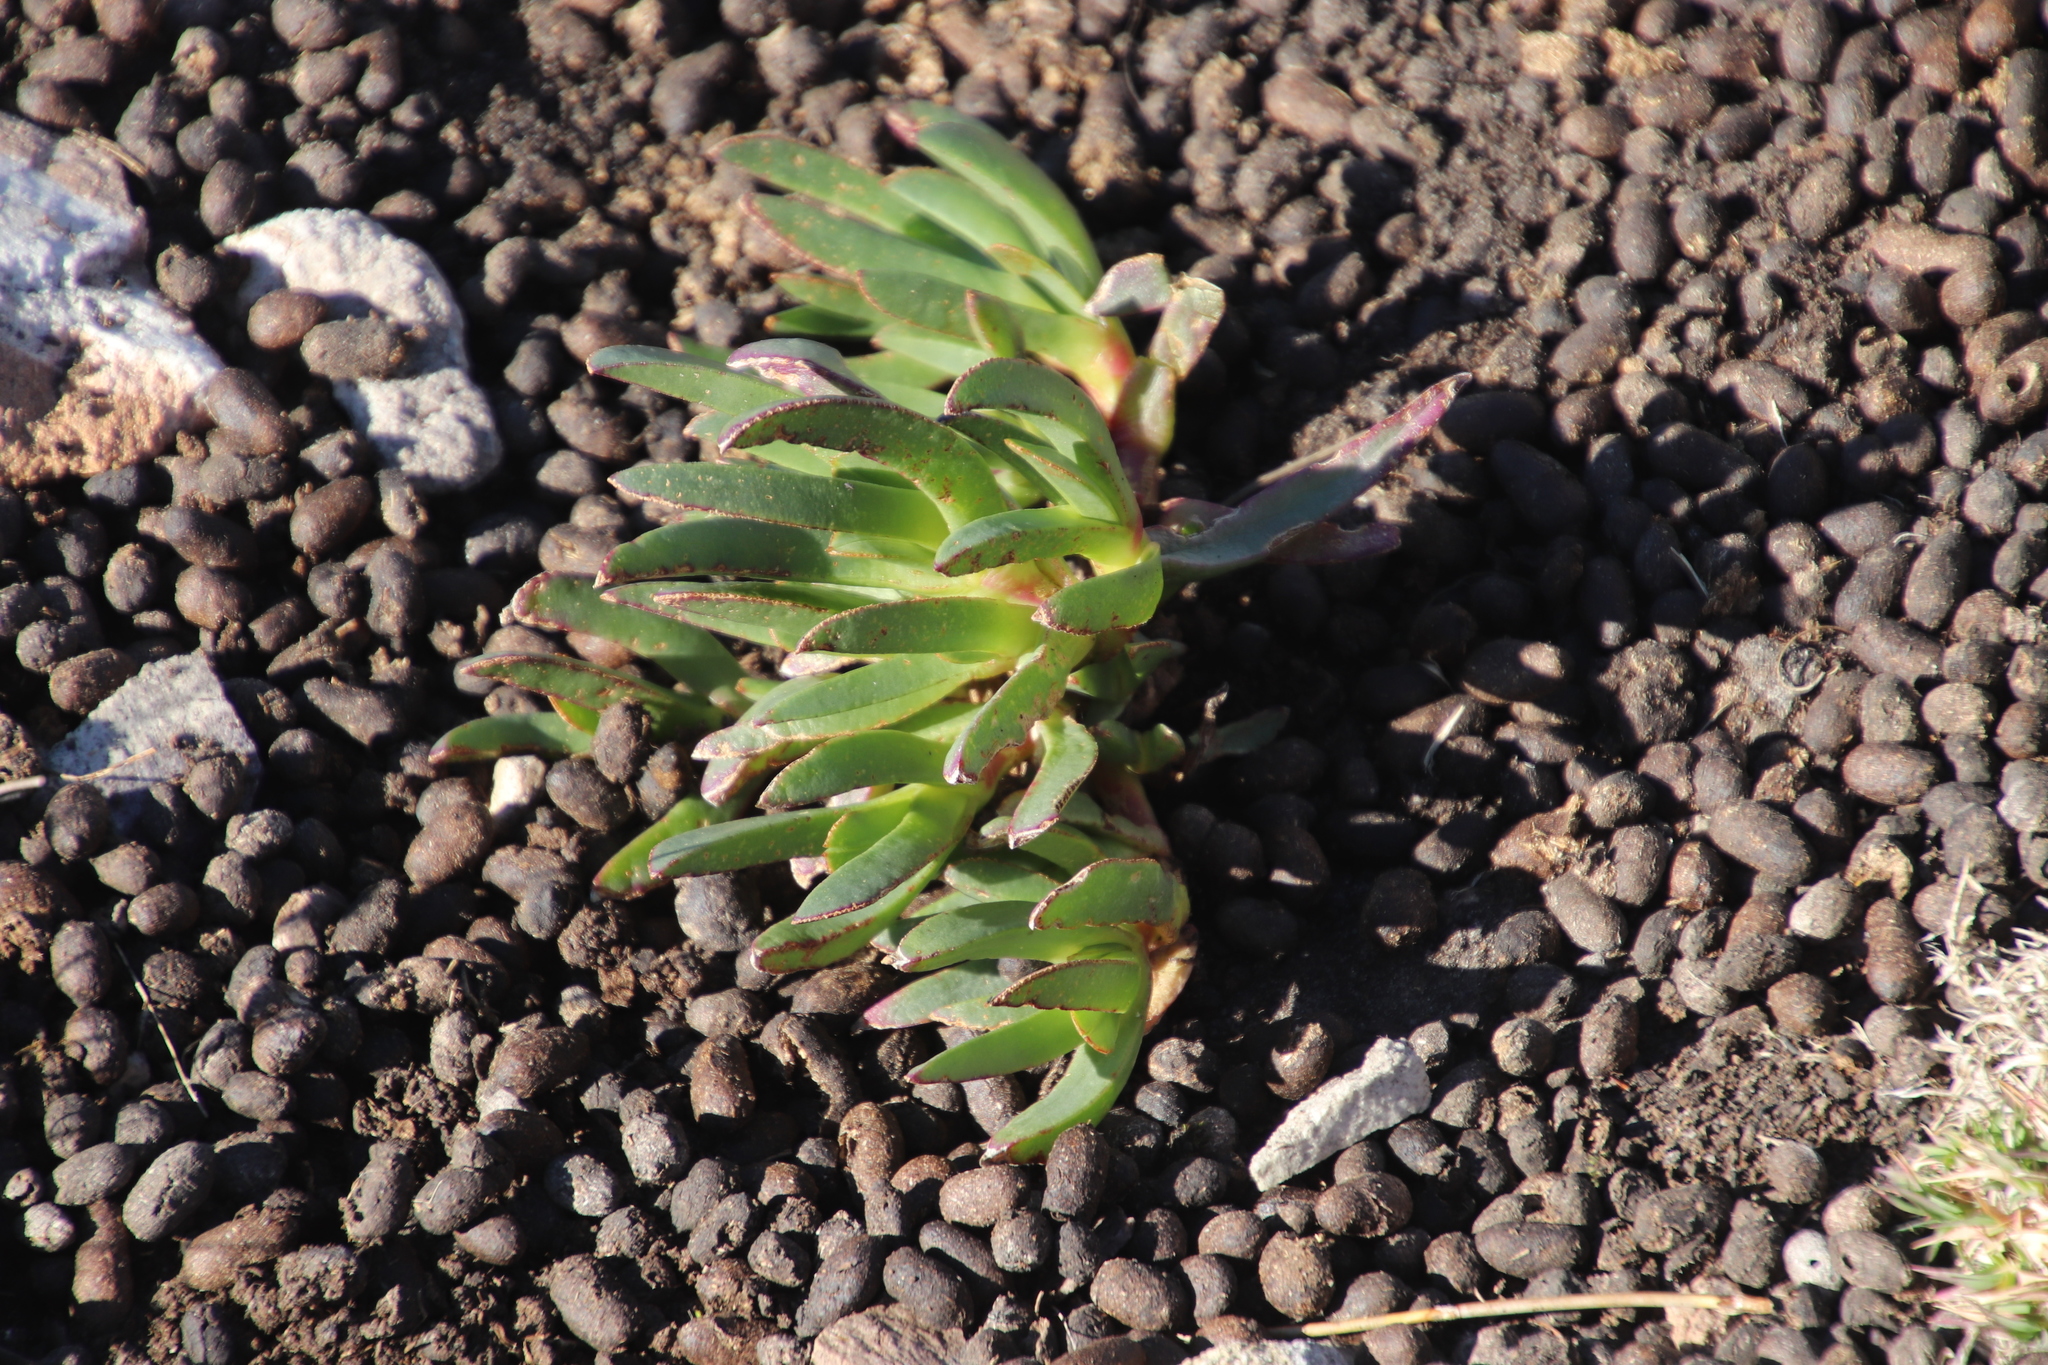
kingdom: Plantae
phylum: Tracheophyta
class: Magnoliopsida
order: Caryophyllales
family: Aizoaceae
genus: Carpobrotus
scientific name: Carpobrotus edulis
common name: Hottentot-fig
